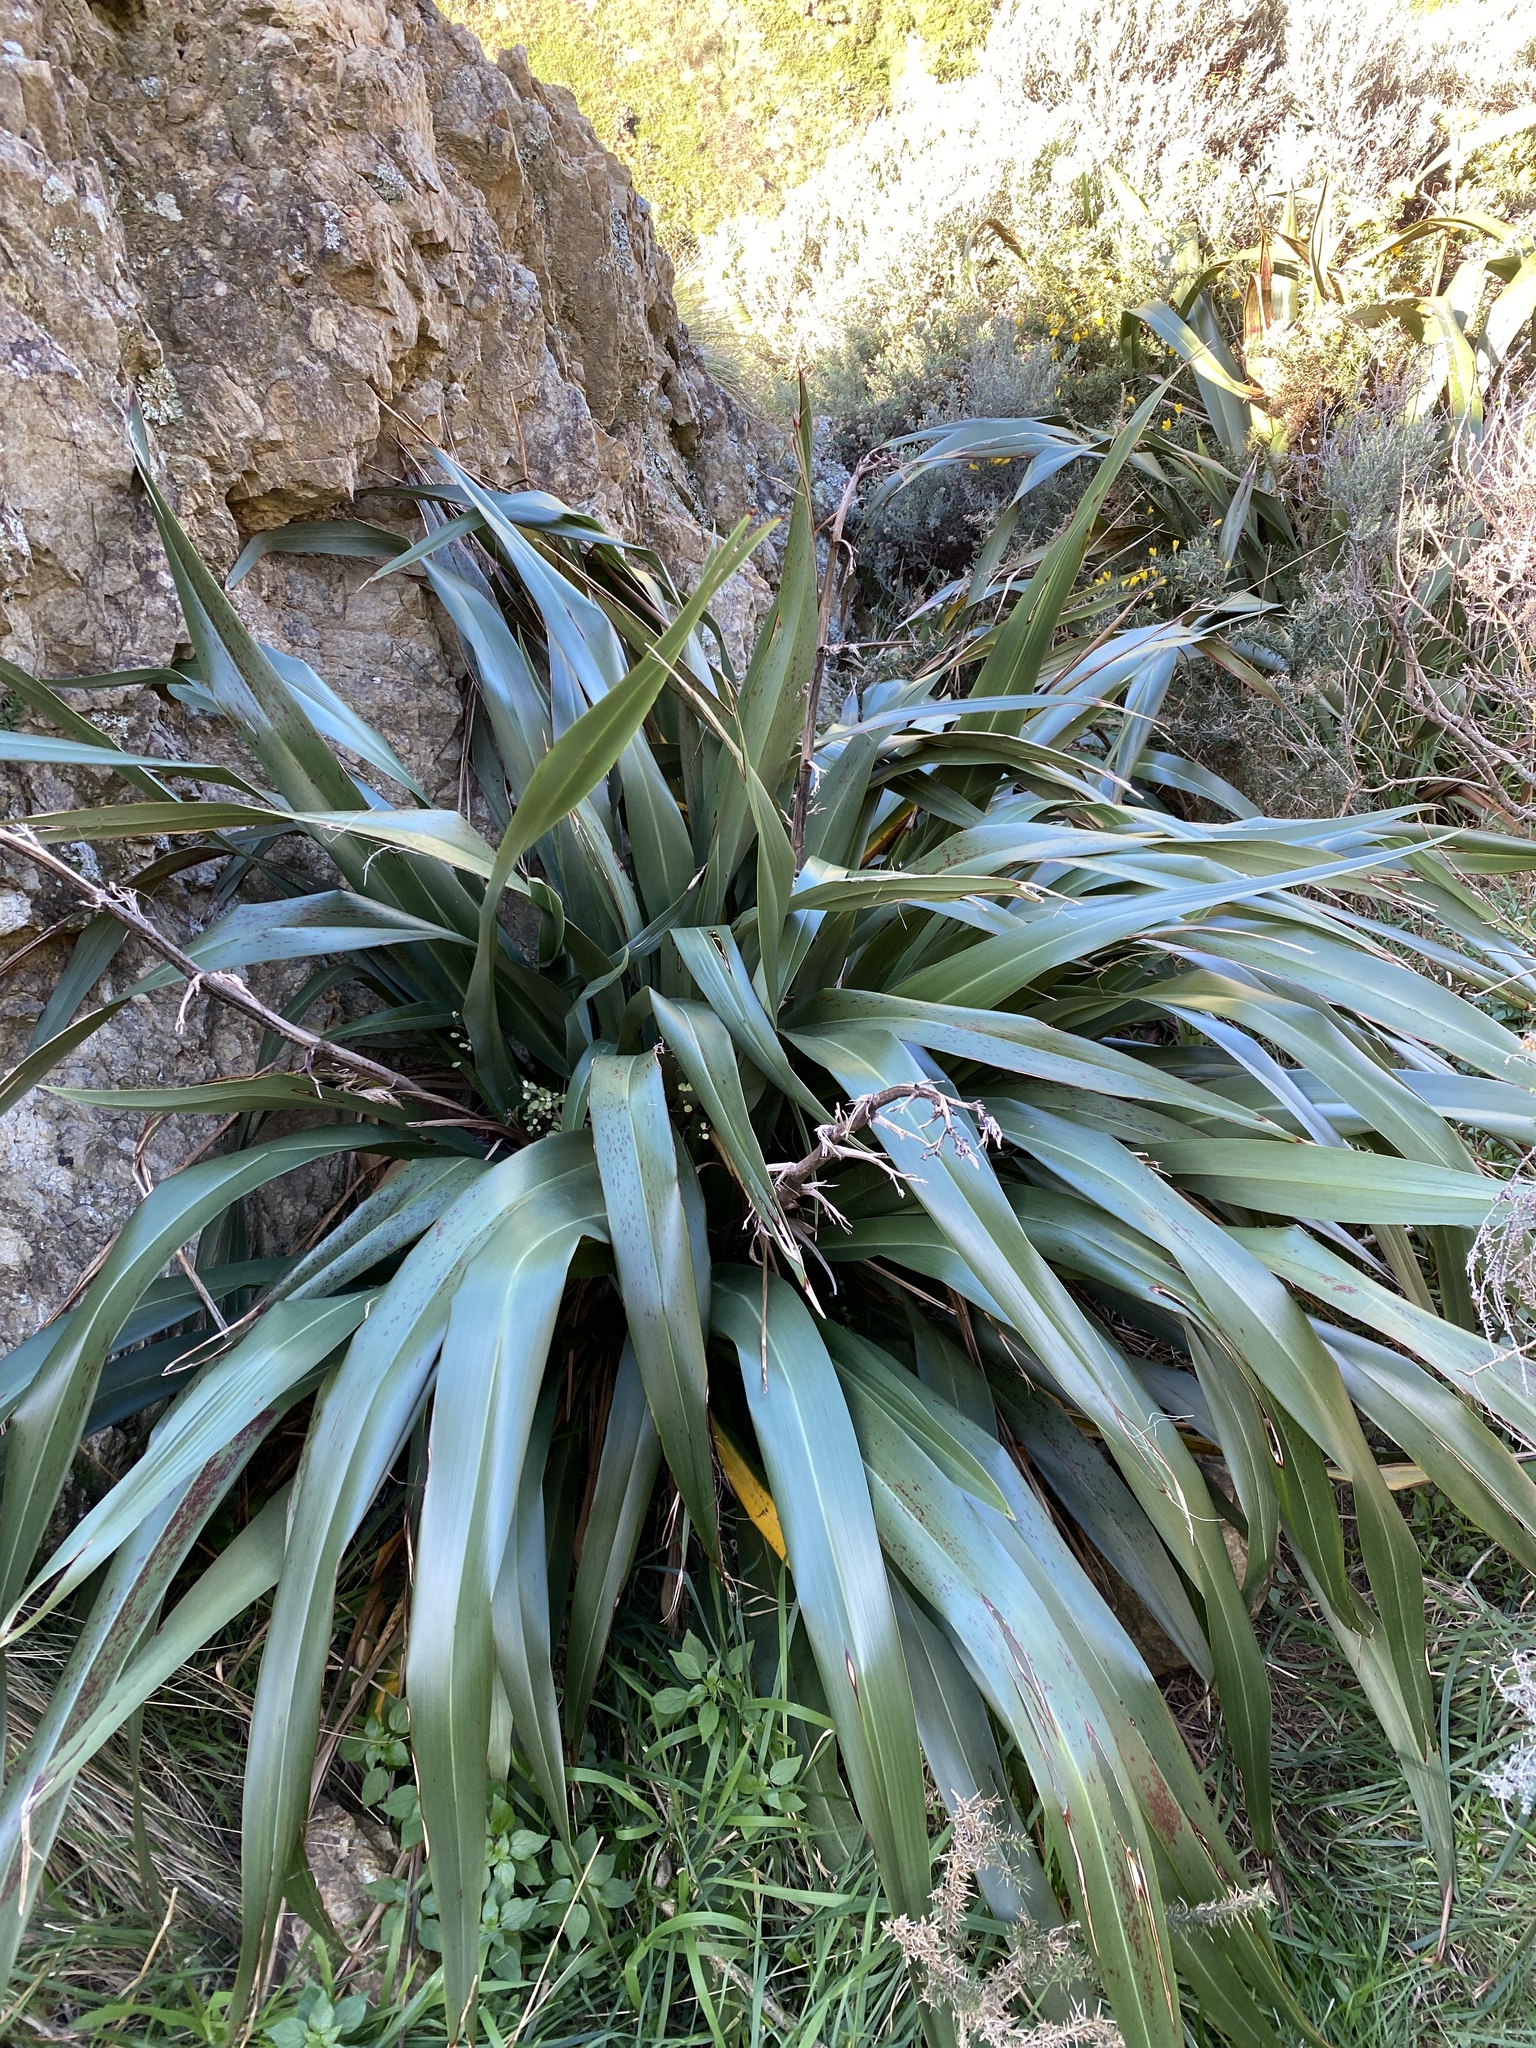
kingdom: Plantae
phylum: Tracheophyta
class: Liliopsida
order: Asparagales
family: Asphodelaceae
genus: Phormium
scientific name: Phormium colensoi
